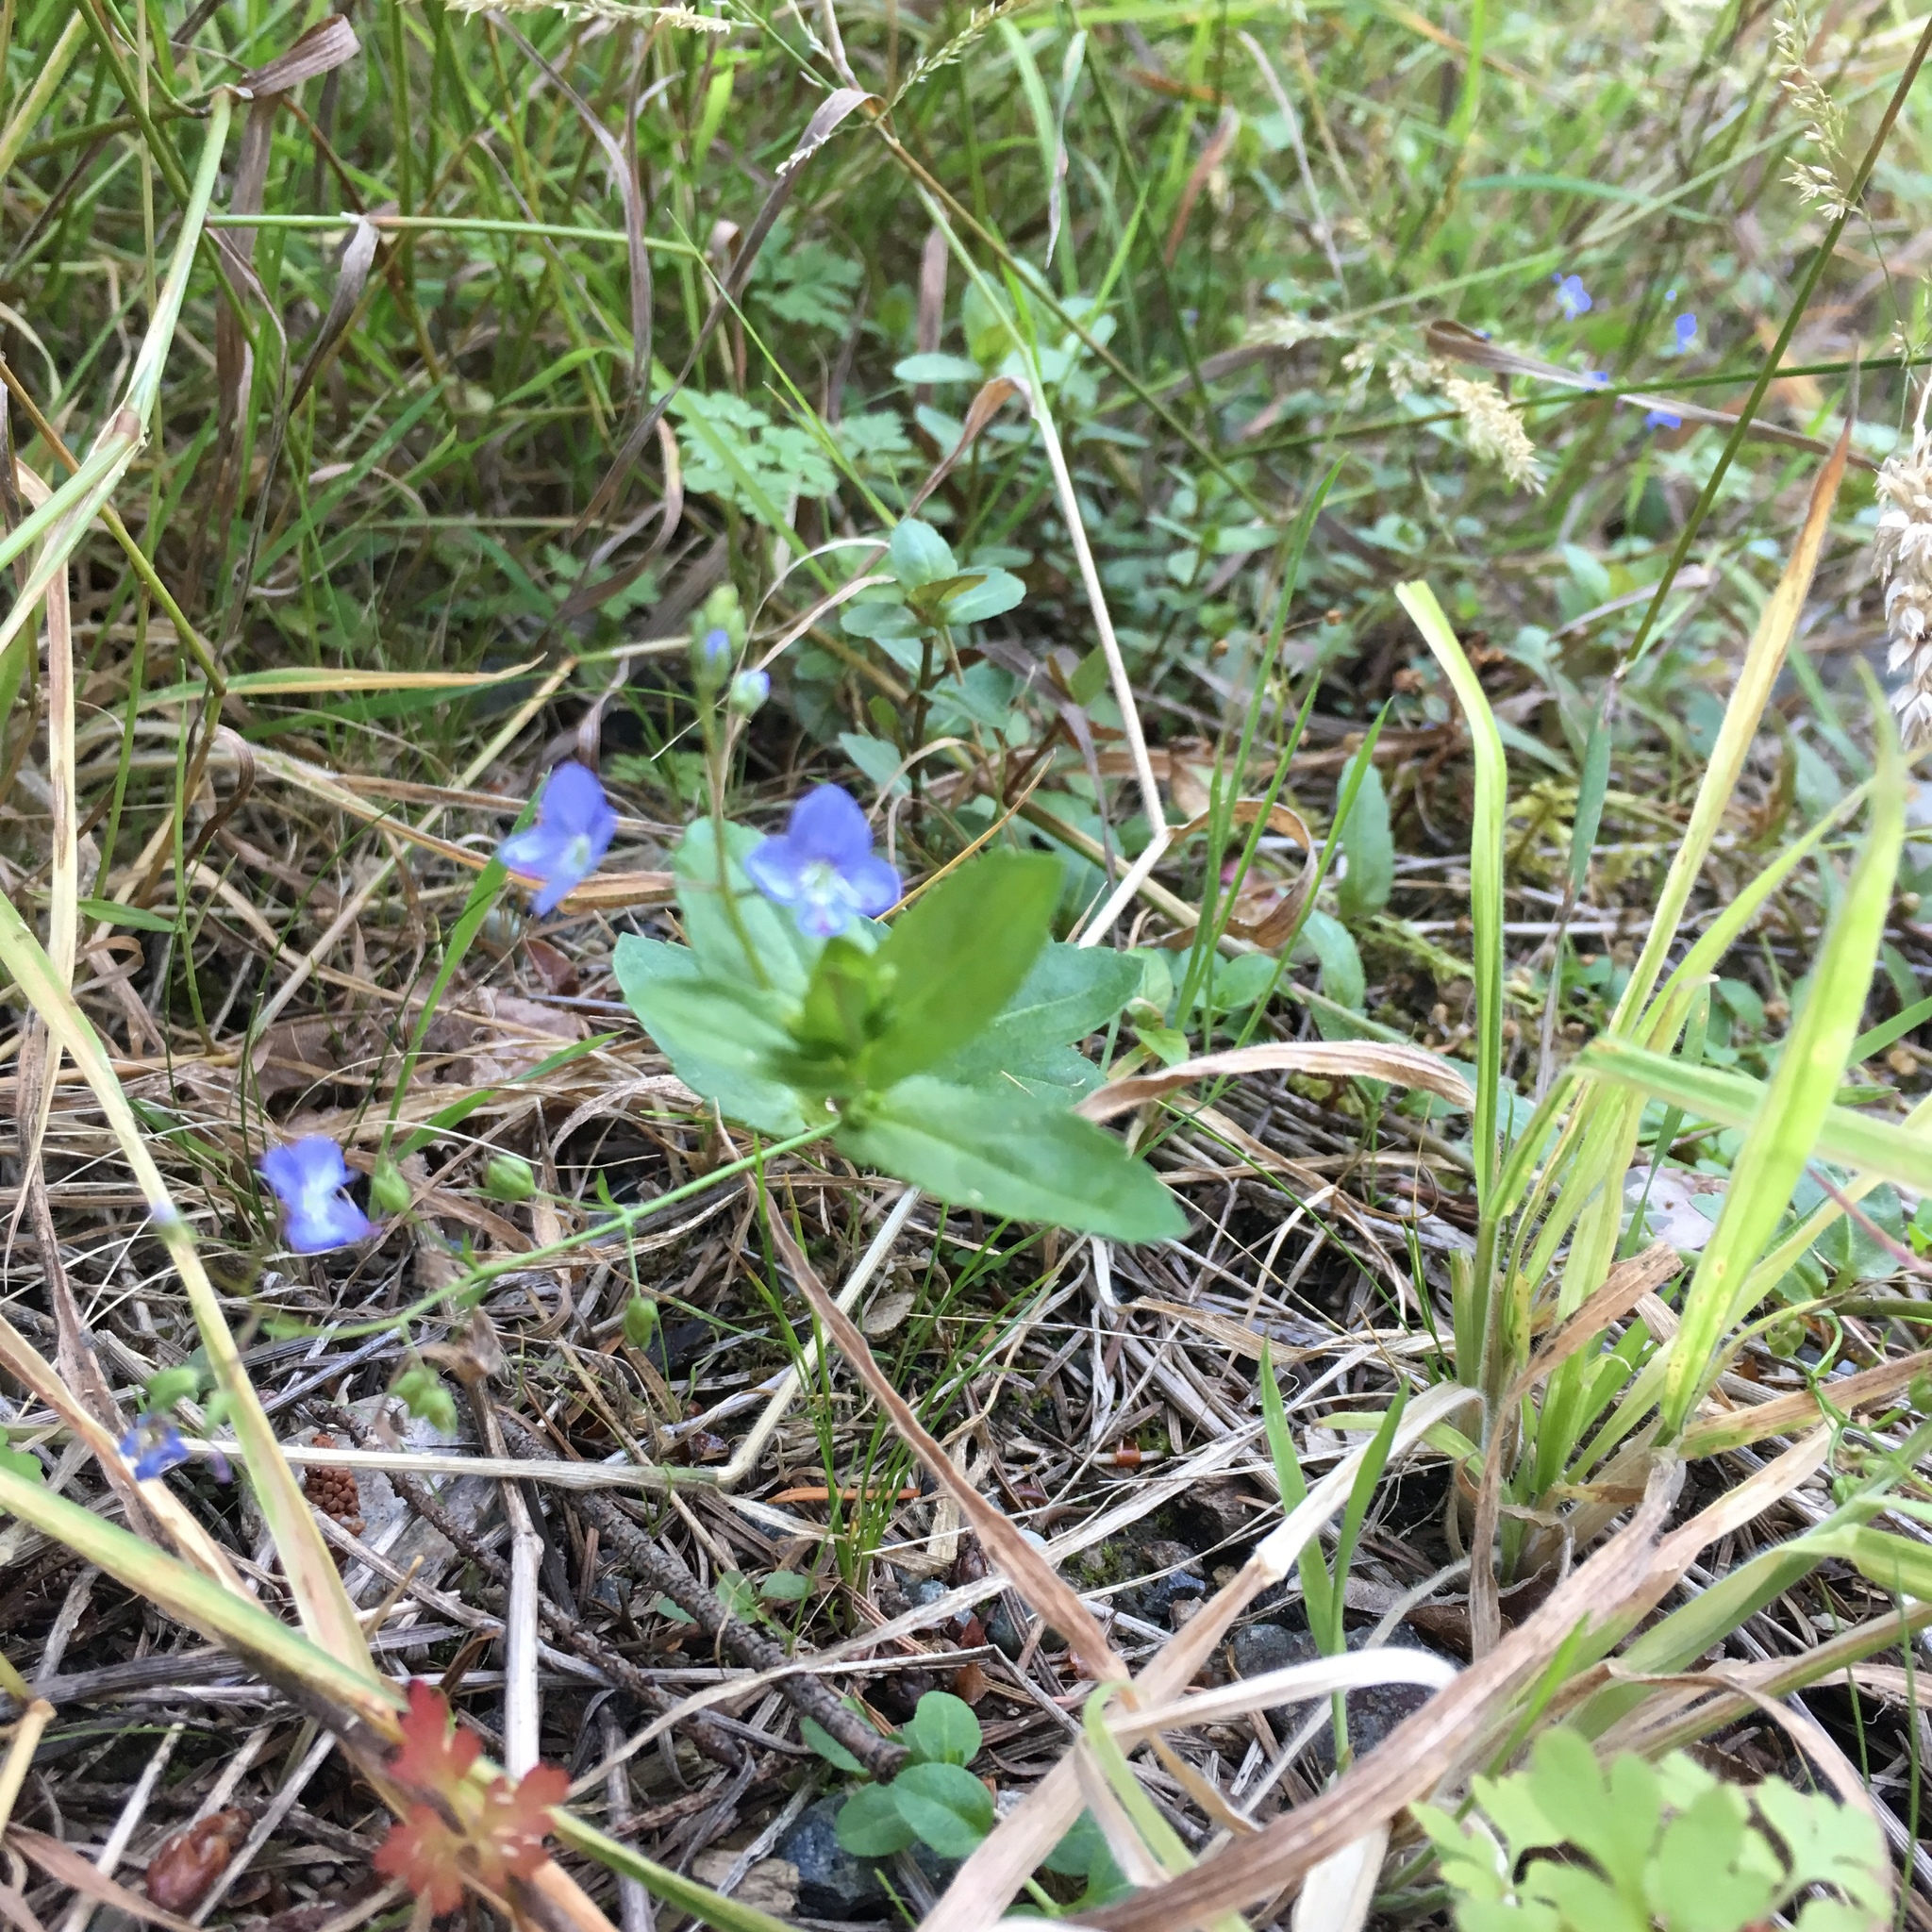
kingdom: Plantae
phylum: Tracheophyta
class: Magnoliopsida
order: Lamiales
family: Plantaginaceae
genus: Veronica
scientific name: Veronica americana
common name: American brooklime
